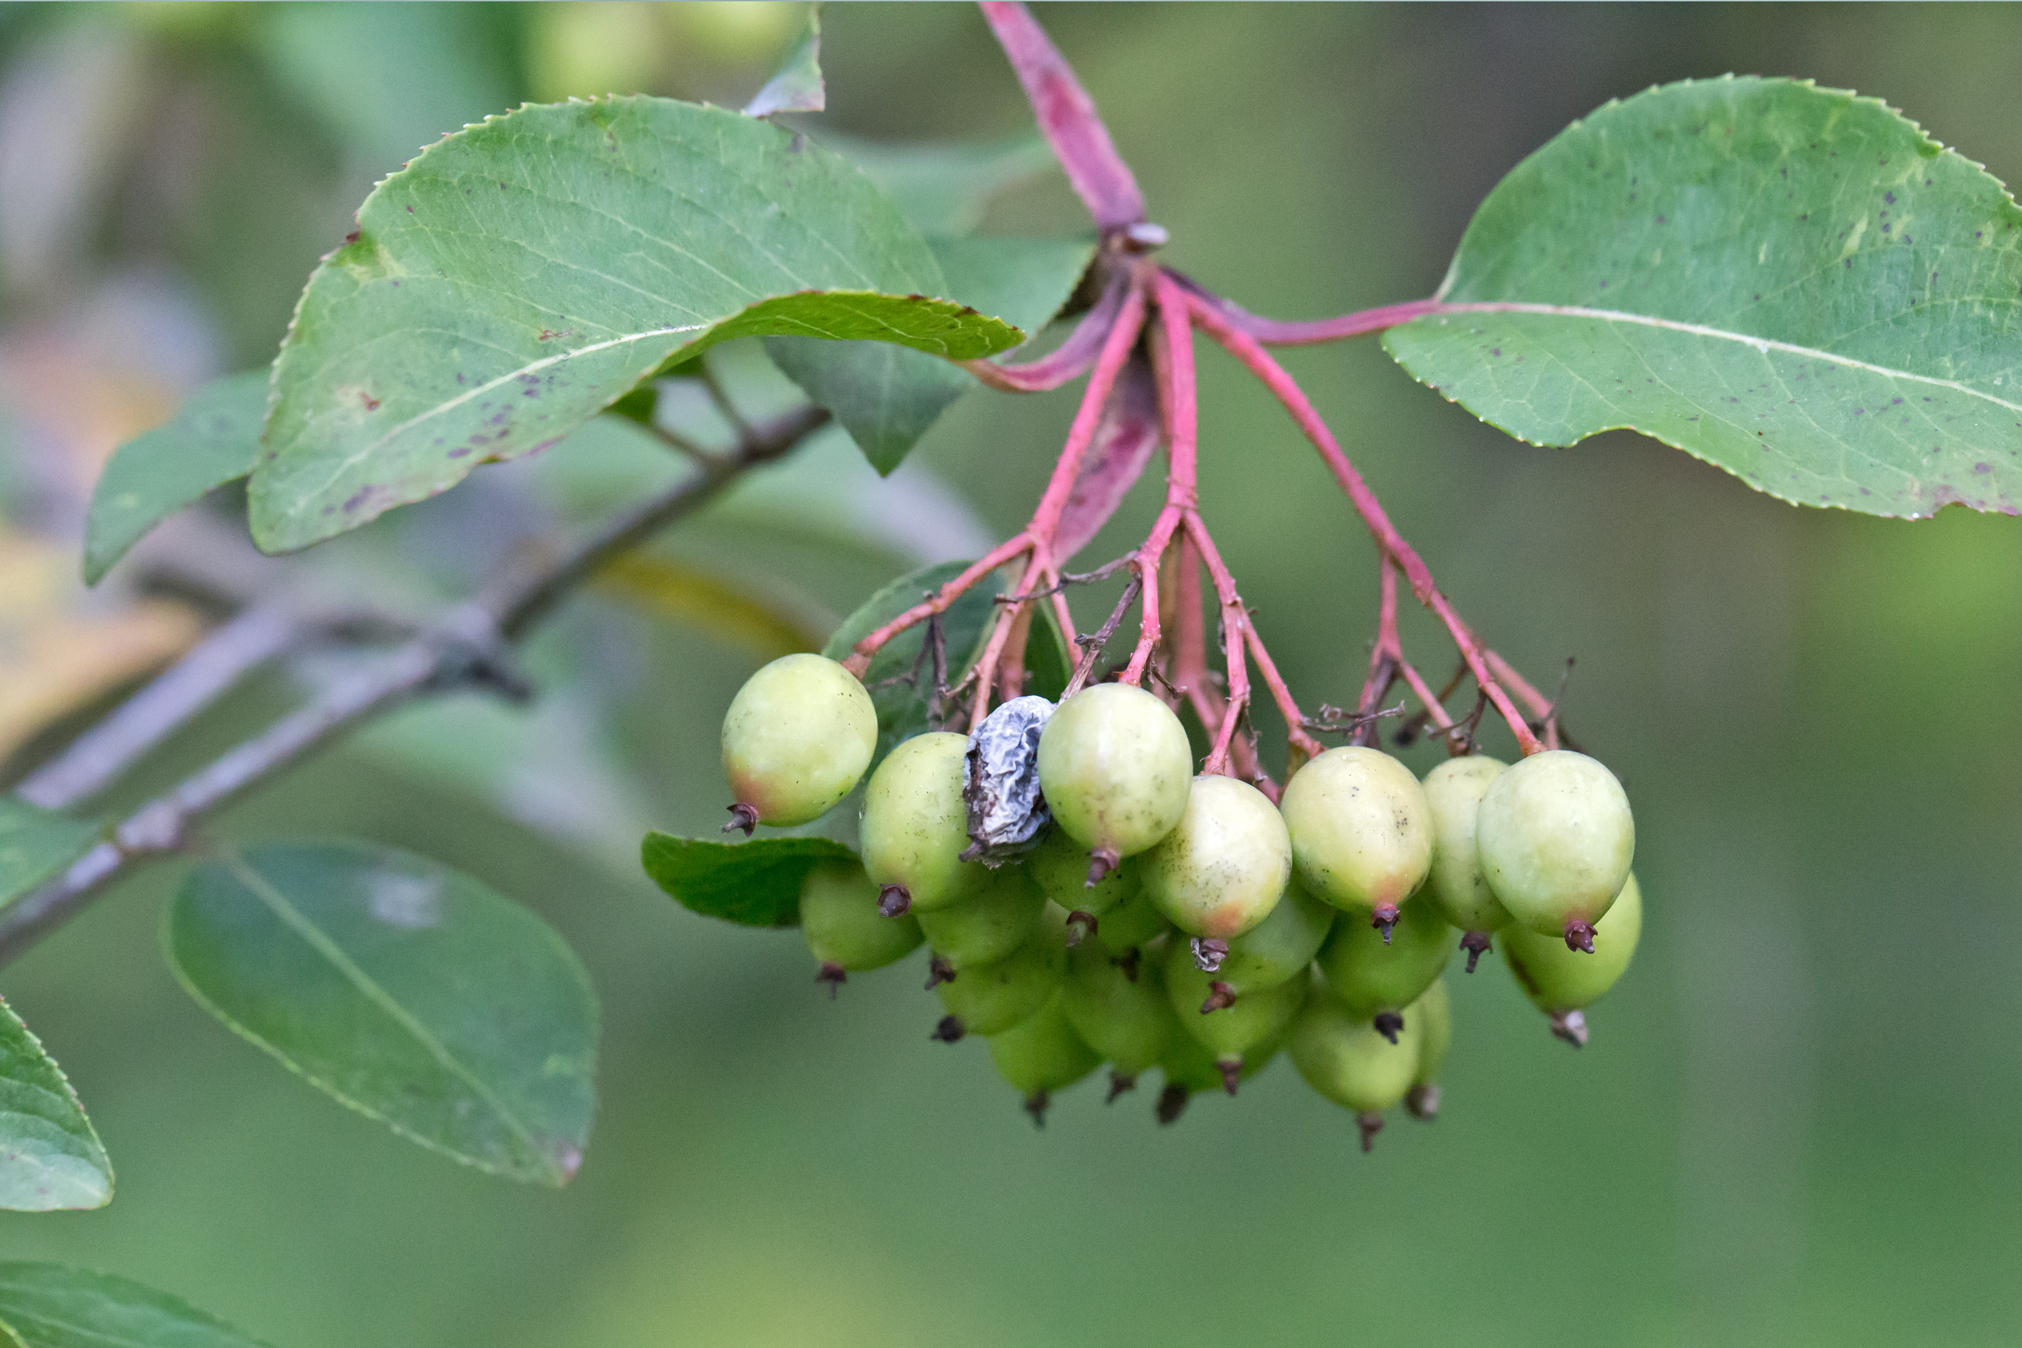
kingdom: Plantae
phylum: Tracheophyta
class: Magnoliopsida
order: Dipsacales
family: Viburnaceae
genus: Viburnum
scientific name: Viburnum prunifolium
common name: Black haw
